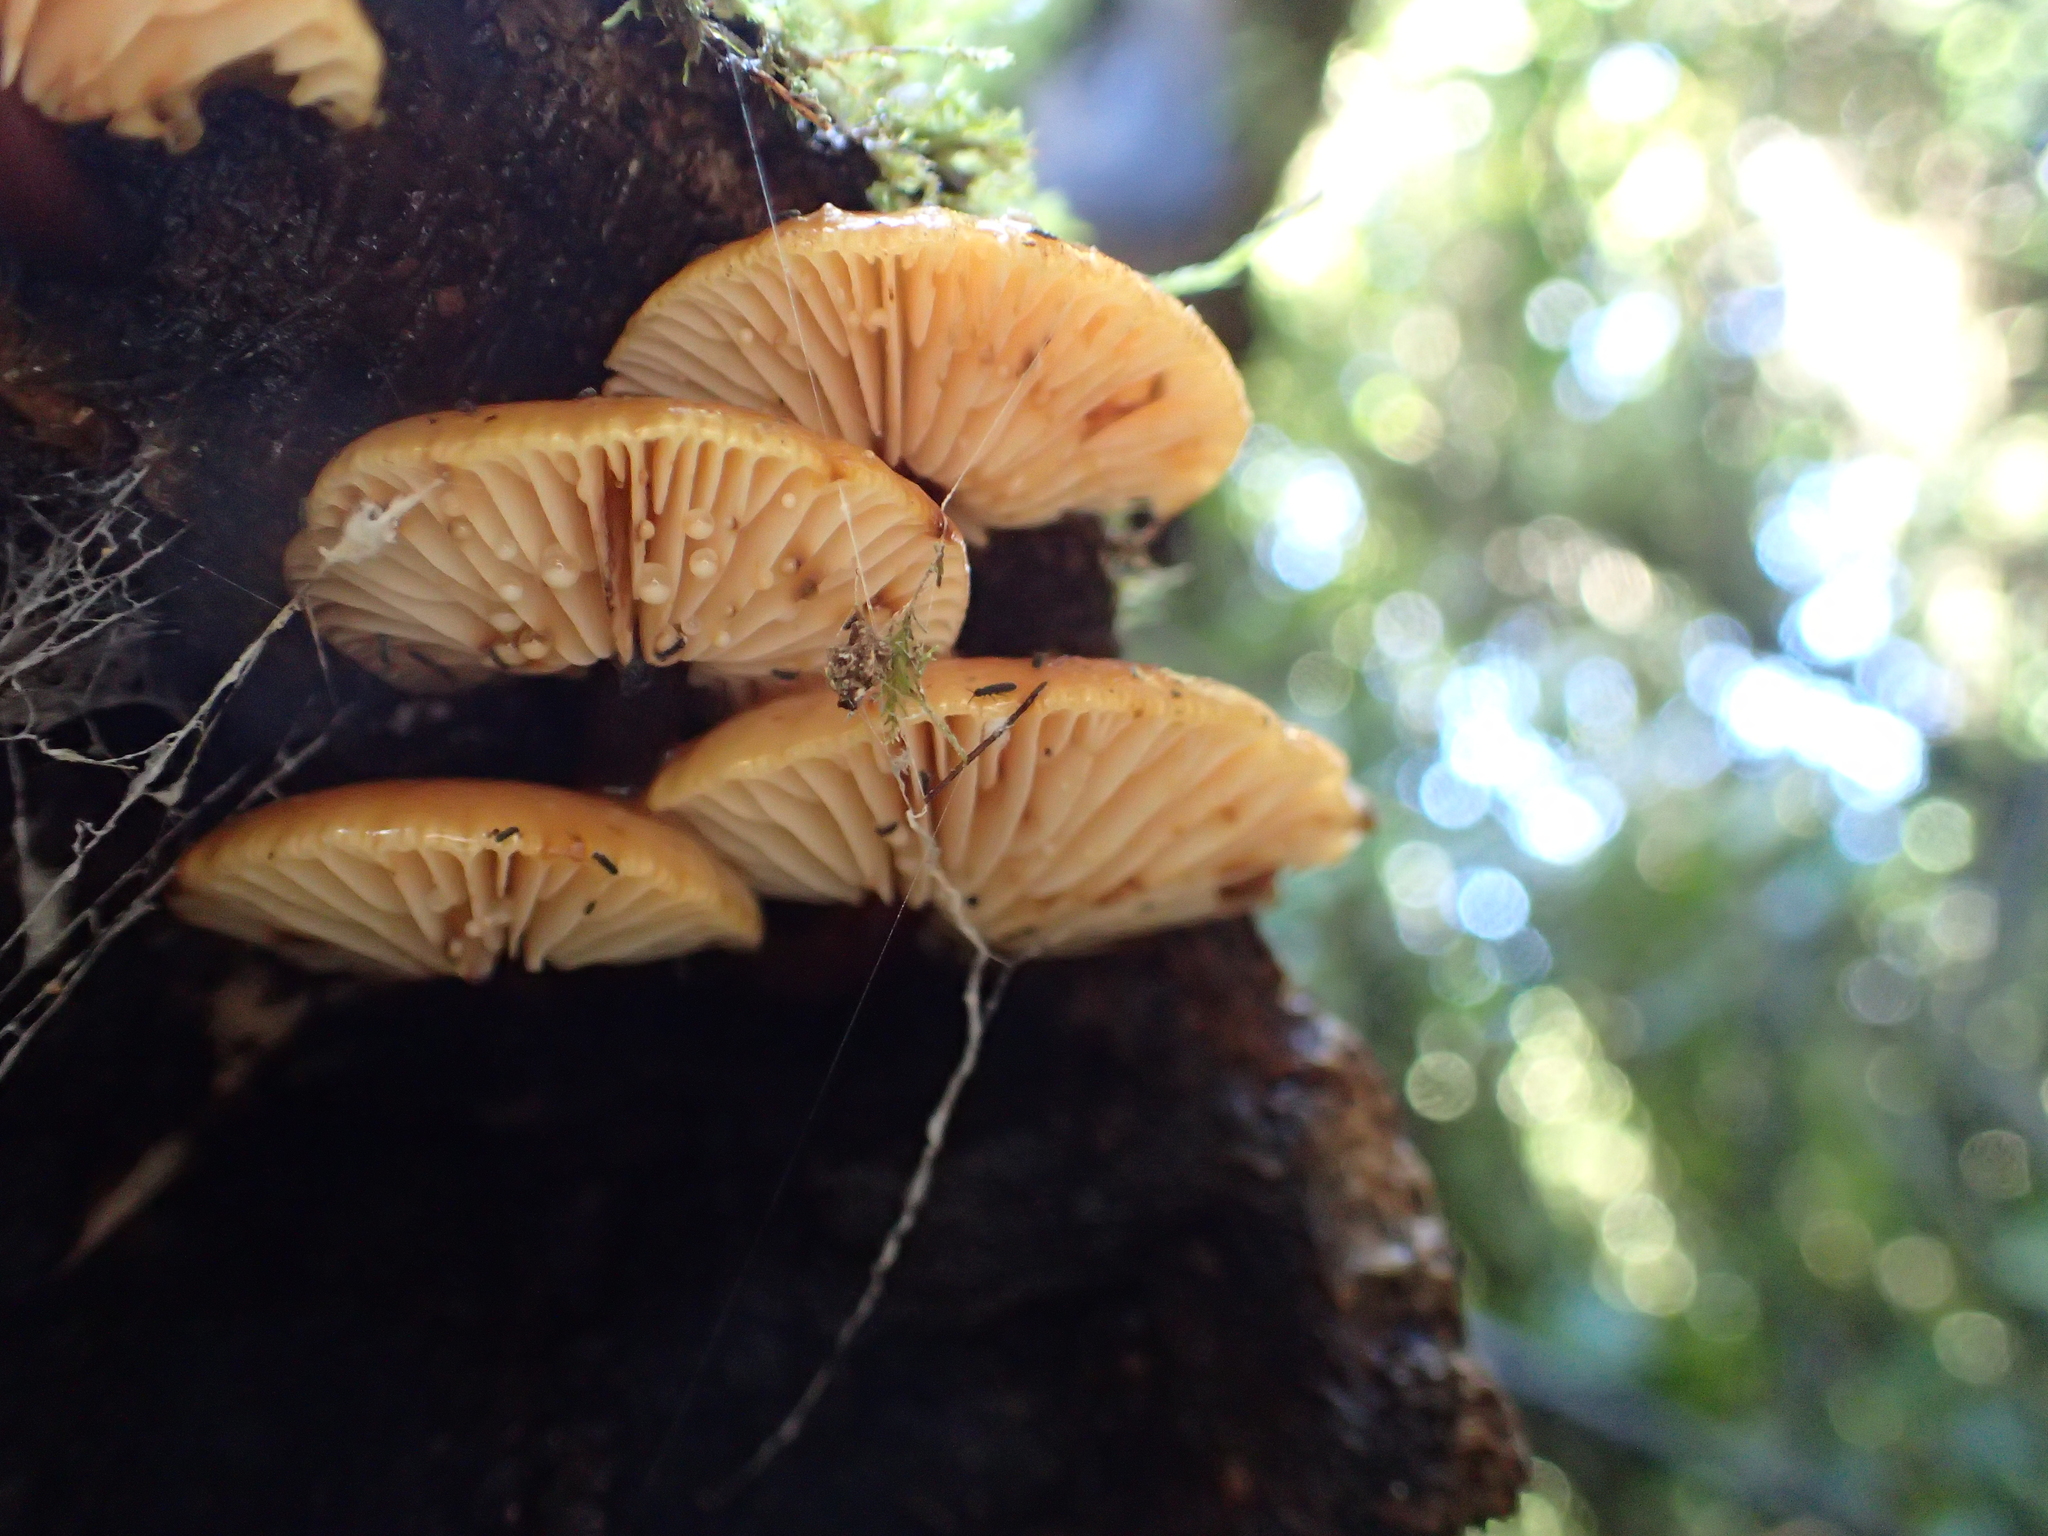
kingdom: Fungi
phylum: Basidiomycota
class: Agaricomycetes
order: Agaricales
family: Physalacriaceae
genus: Flammulina
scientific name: Flammulina velutipes
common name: Velvet shank
